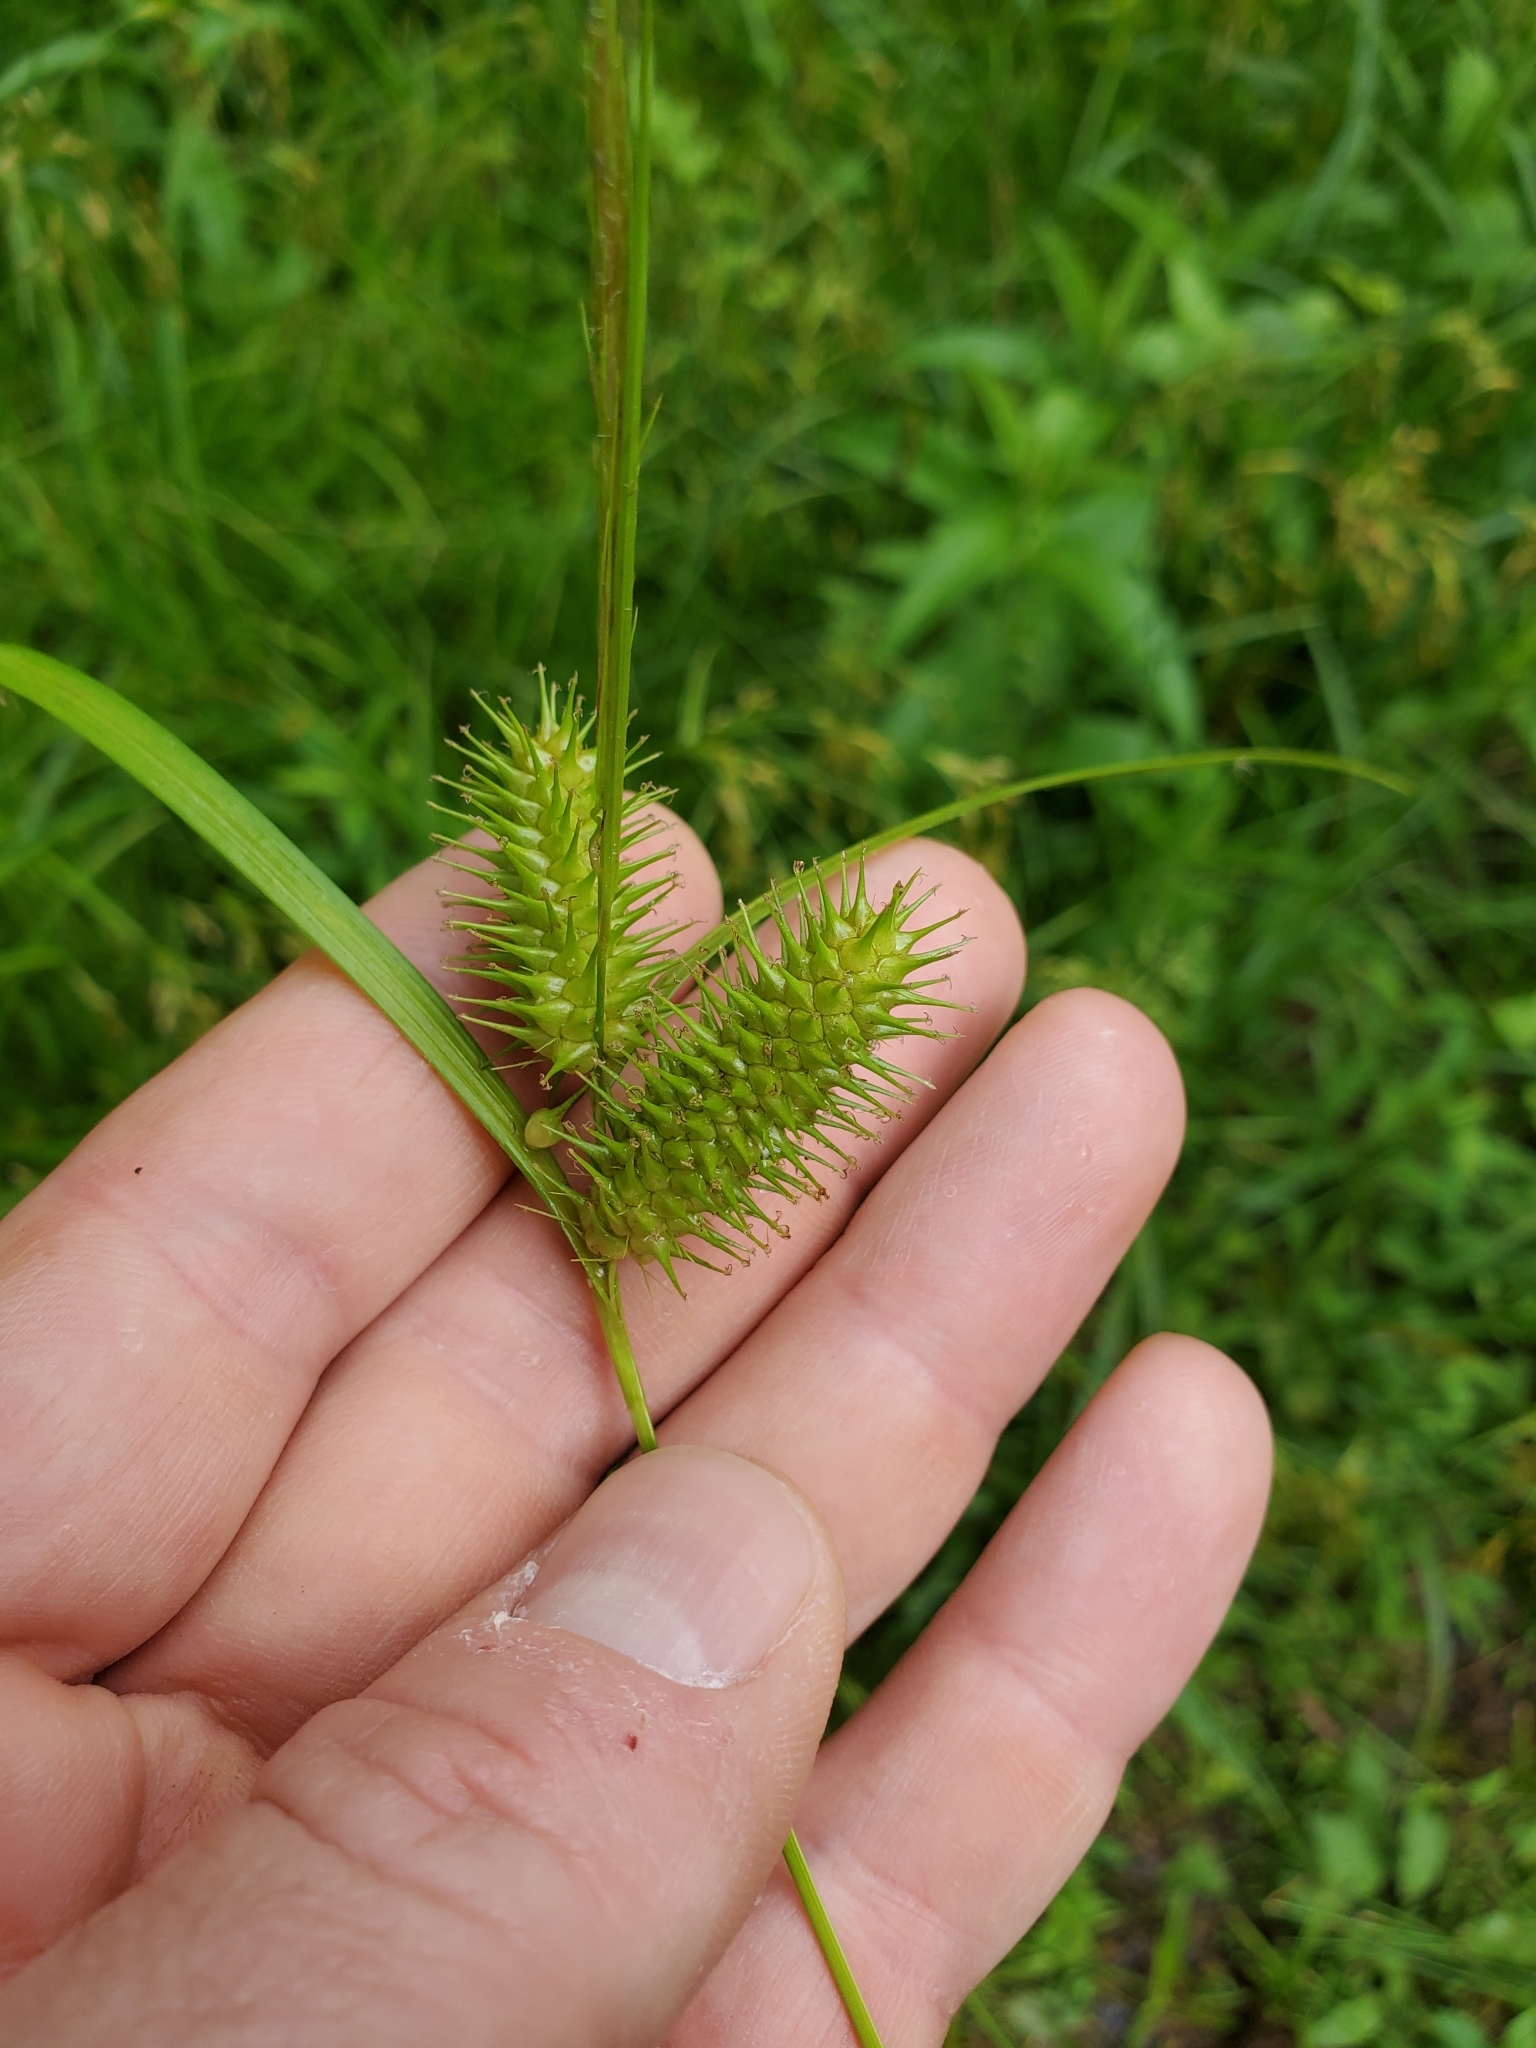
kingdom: Plantae
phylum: Tracheophyta
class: Liliopsida
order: Poales
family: Cyperaceae
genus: Carex
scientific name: Carex lurida
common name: Sallow sedge
